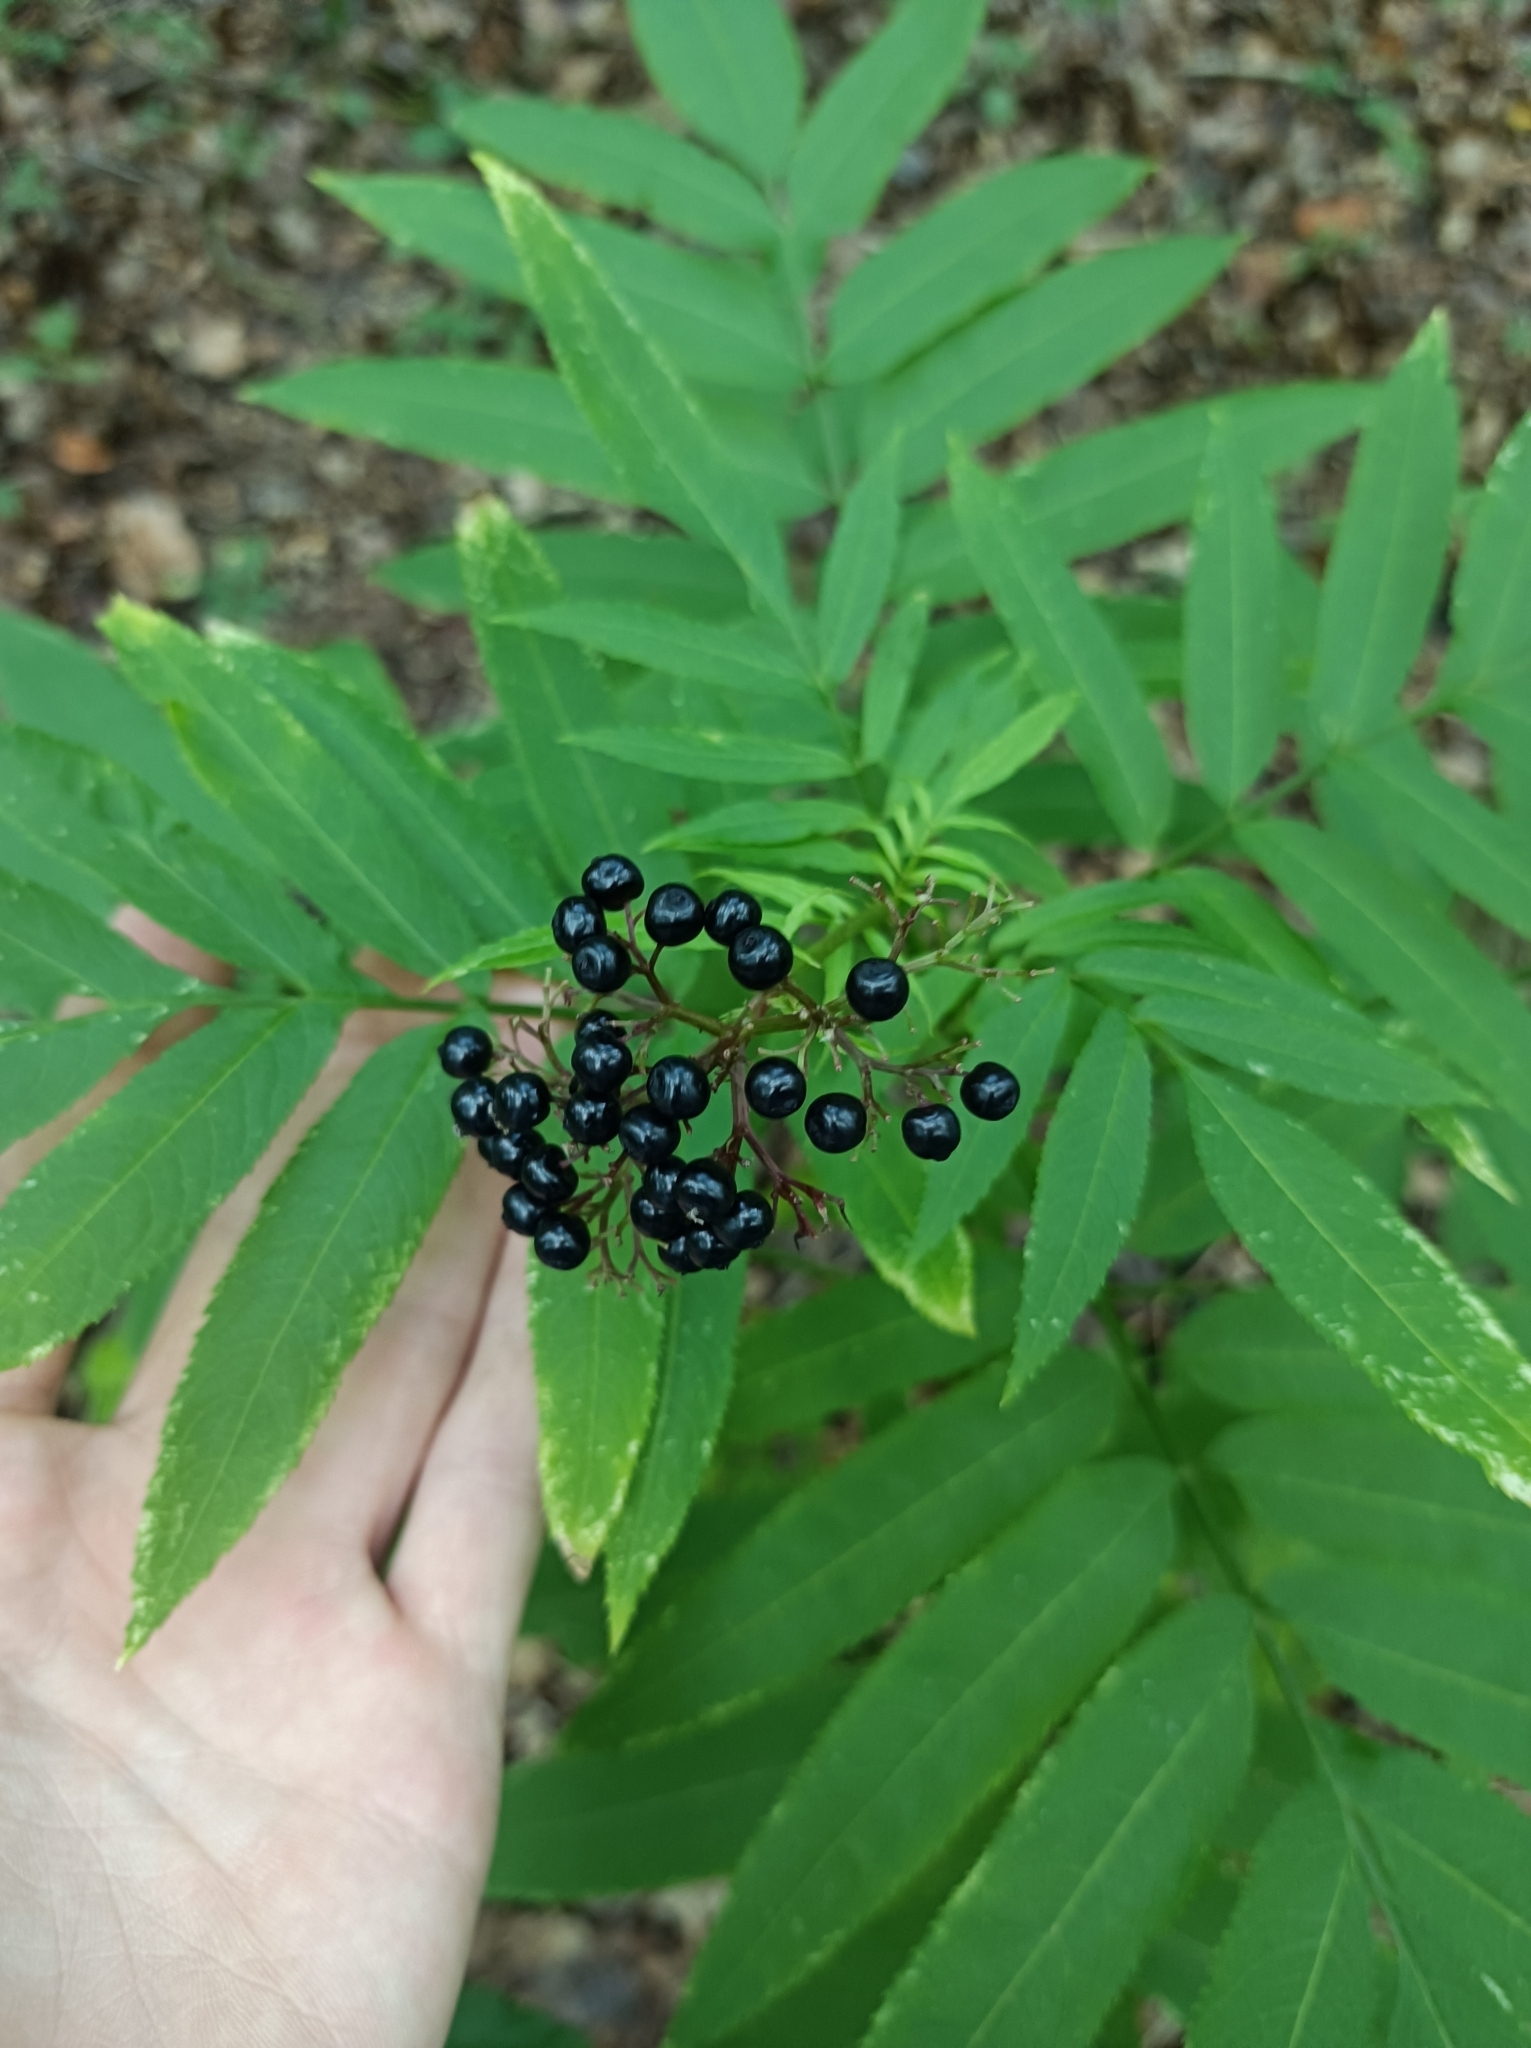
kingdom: Plantae
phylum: Tracheophyta
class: Magnoliopsida
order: Dipsacales
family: Viburnaceae
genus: Sambucus
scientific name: Sambucus ebulus
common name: Dwarf elder
